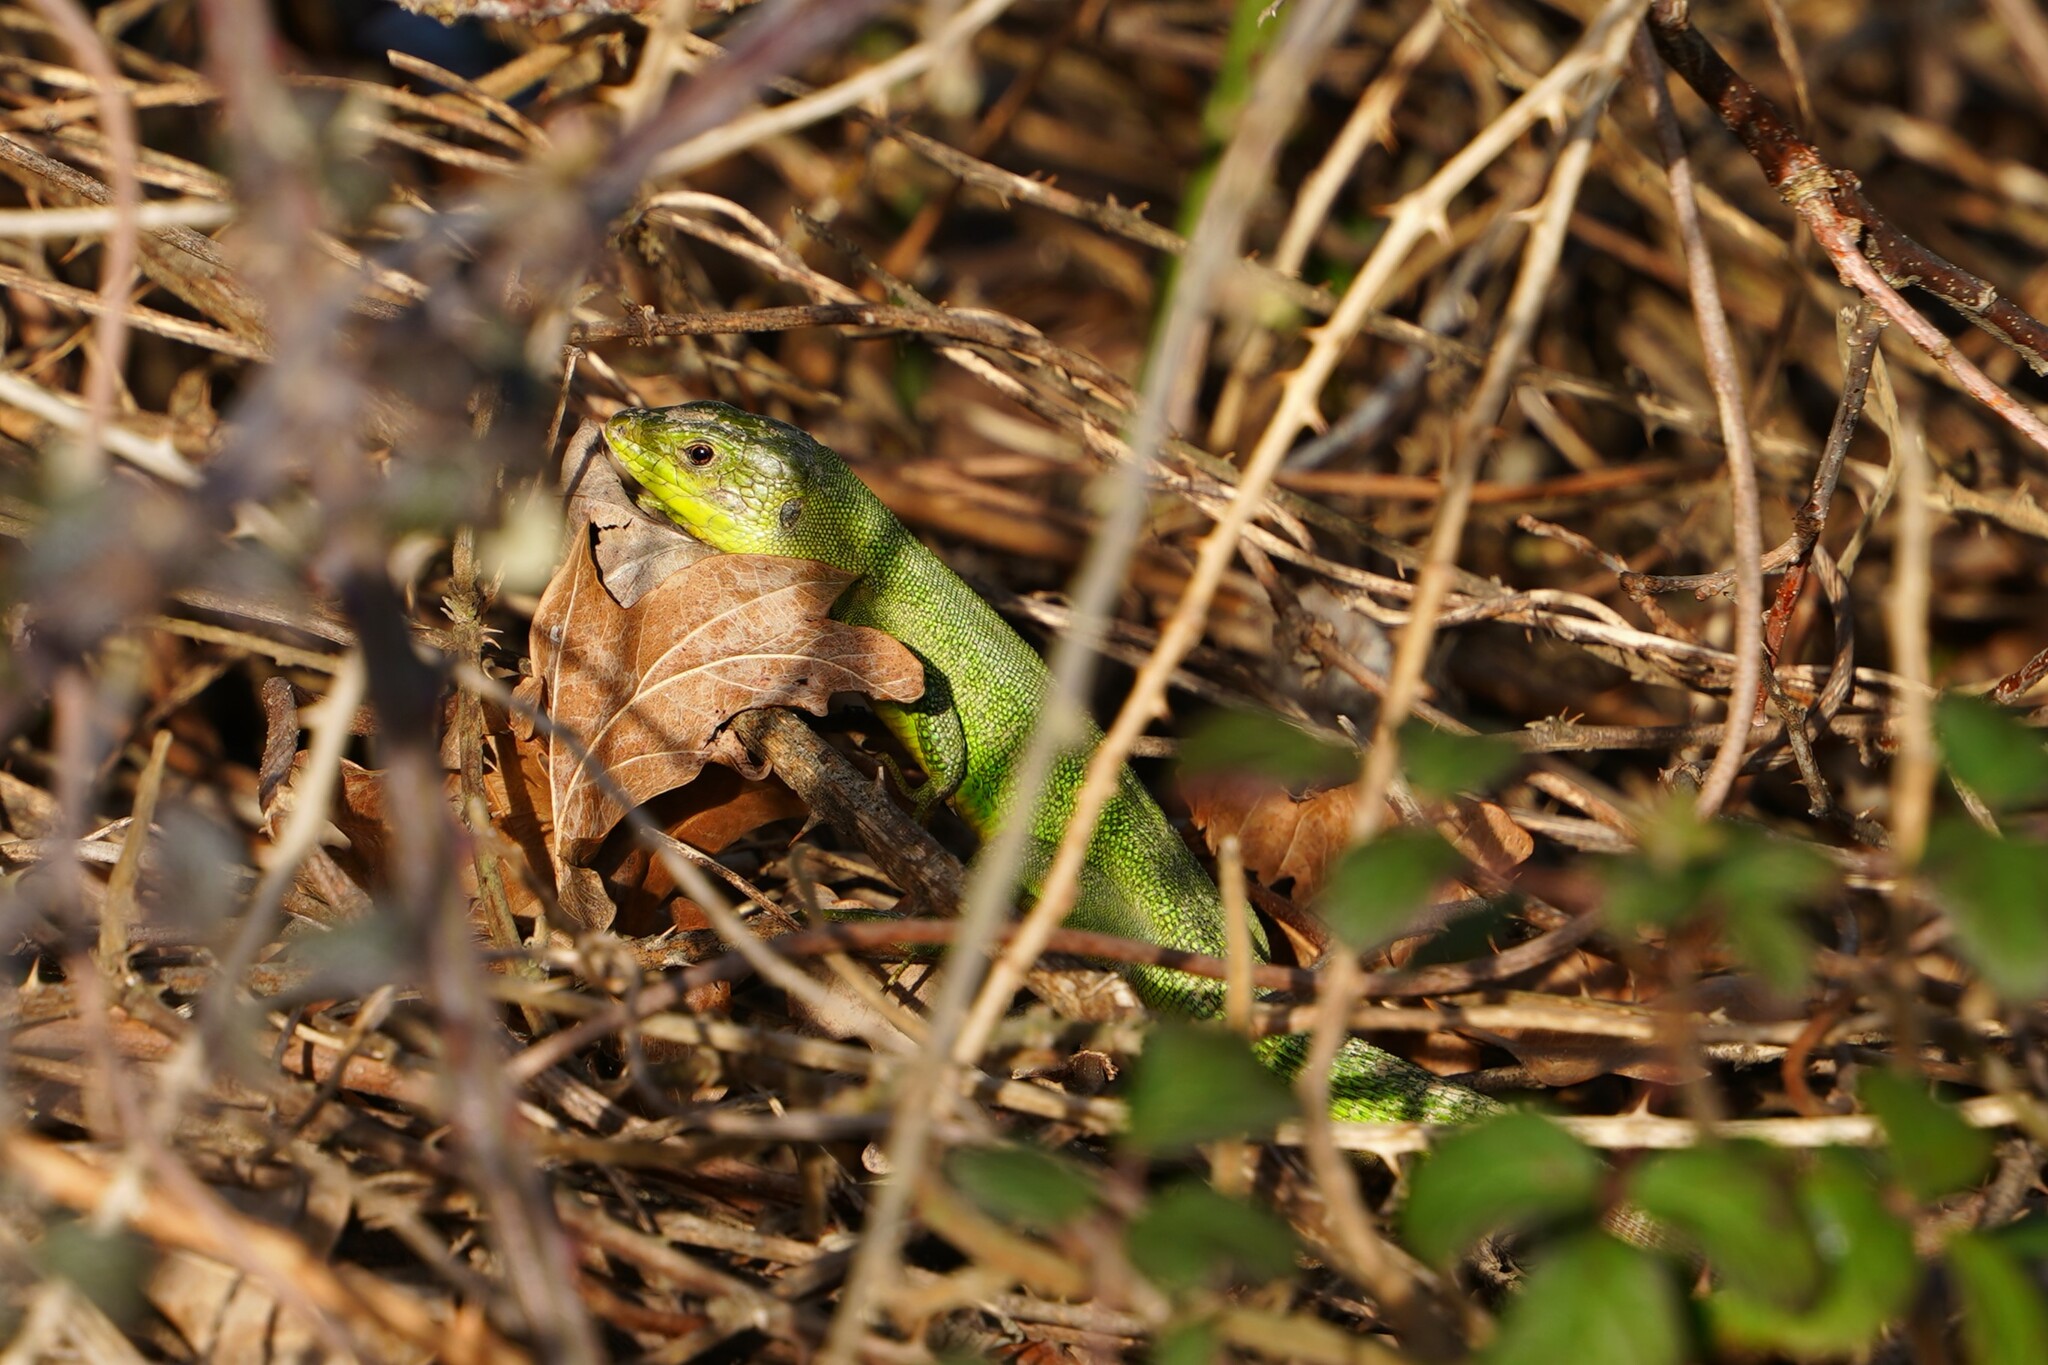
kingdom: Animalia
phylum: Chordata
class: Squamata
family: Lacertidae
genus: Lacerta
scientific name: Lacerta bilineata
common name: Western green lizard
